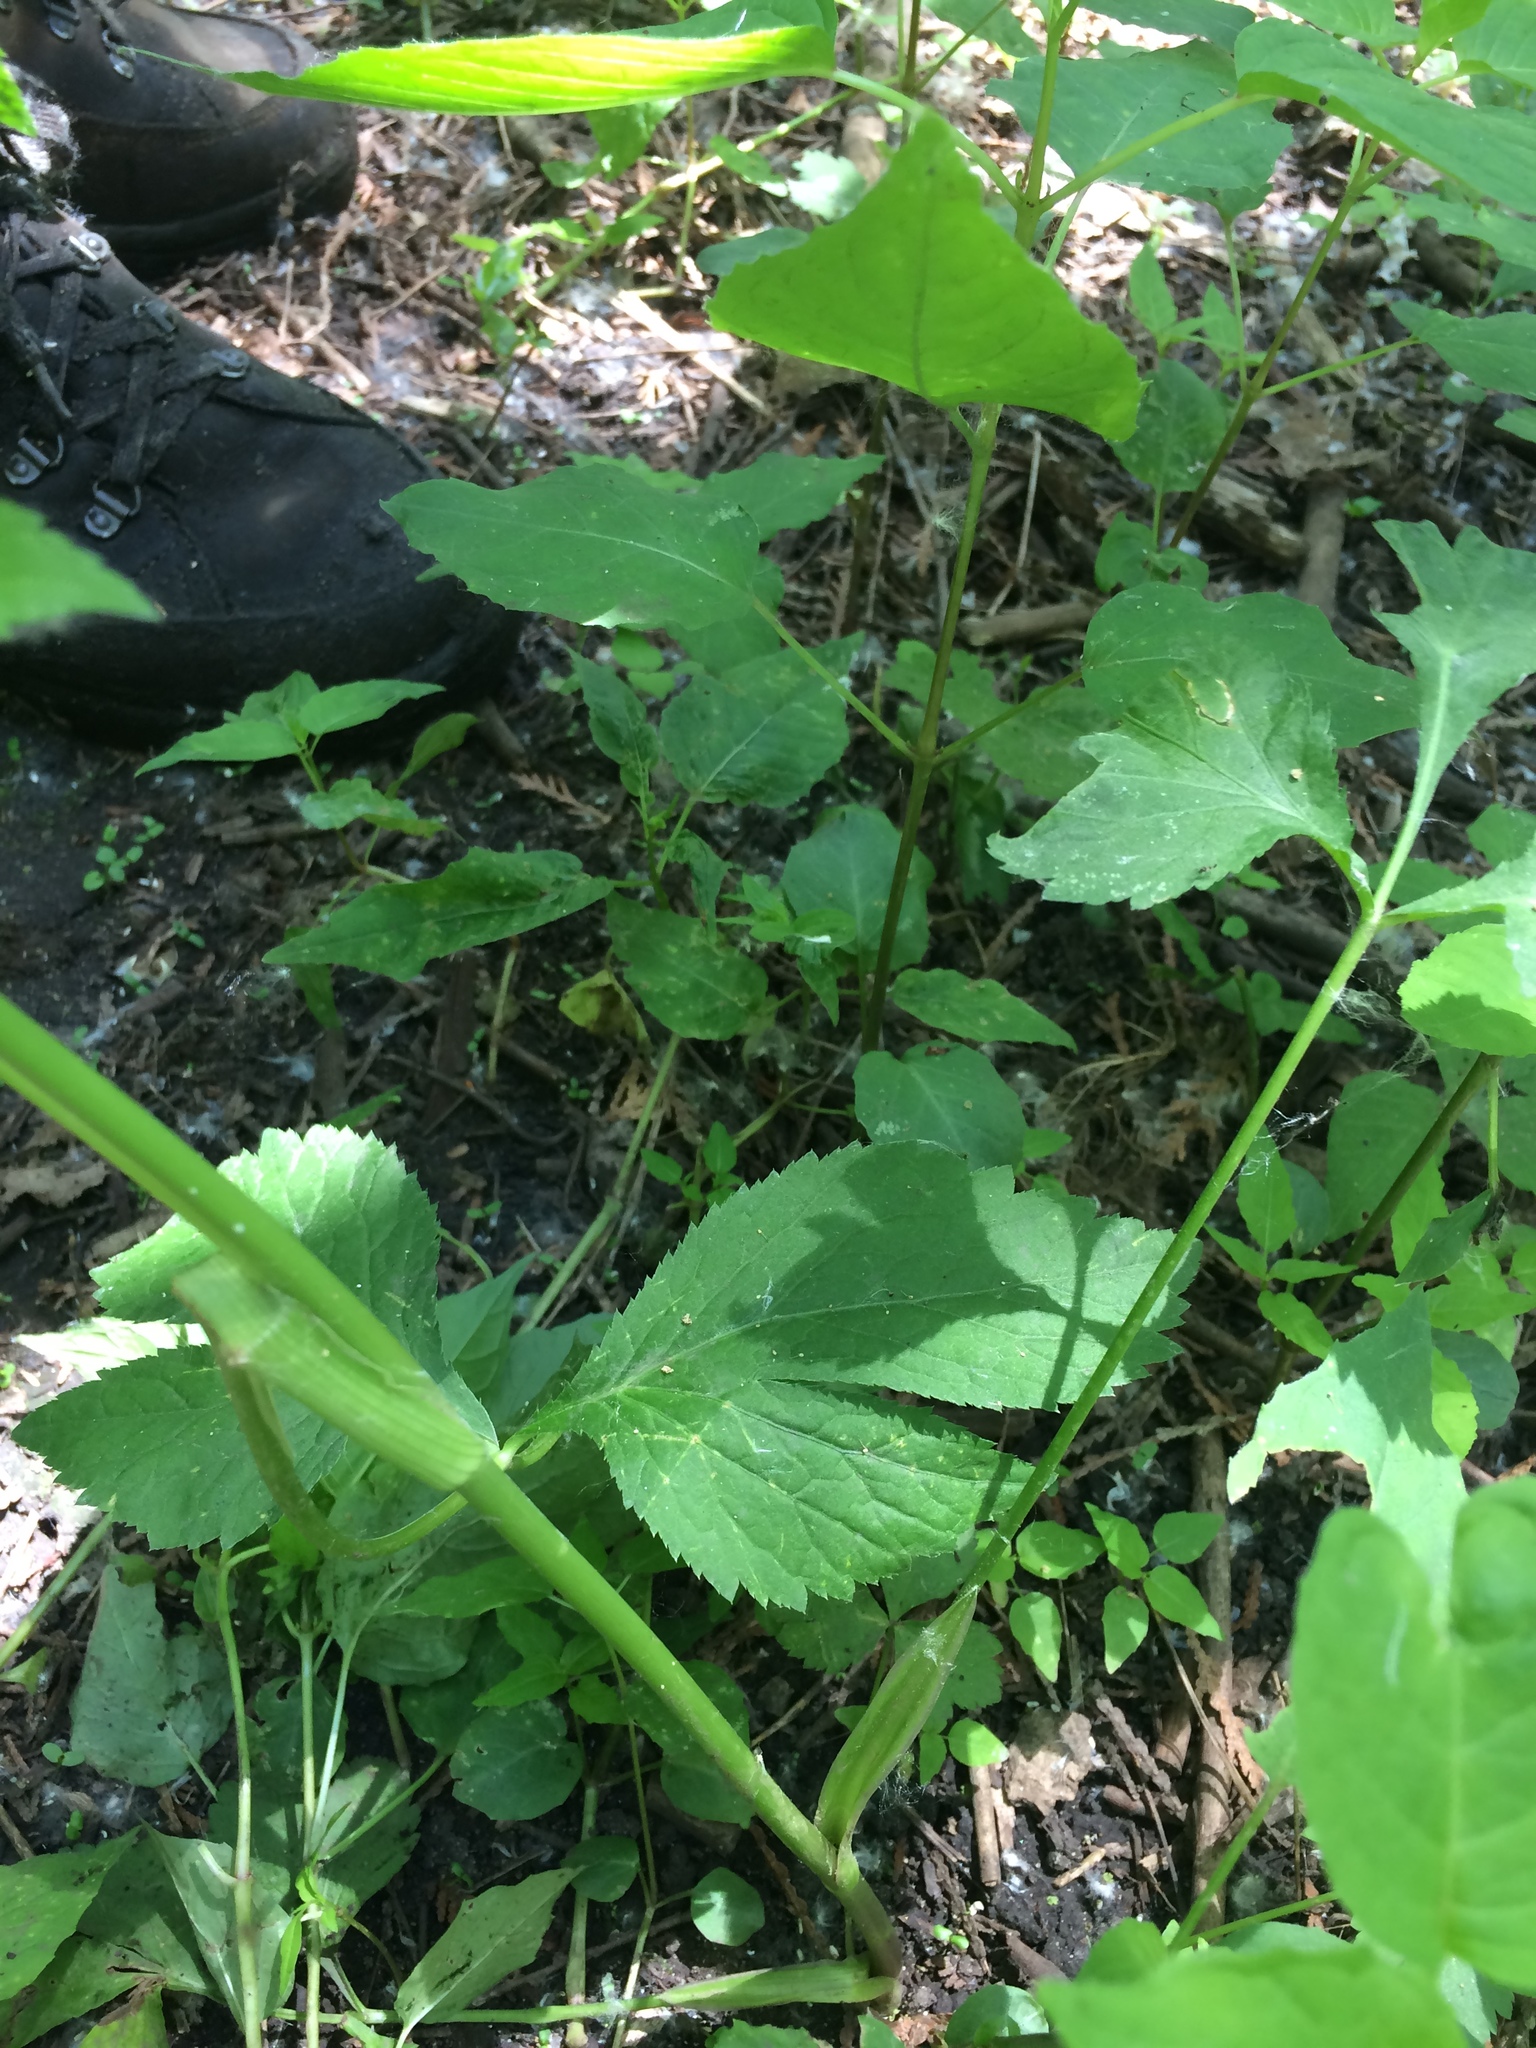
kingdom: Plantae
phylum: Tracheophyta
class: Magnoliopsida
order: Apiales
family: Apiaceae
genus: Cryptotaenia
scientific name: Cryptotaenia canadensis
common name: Honewort
